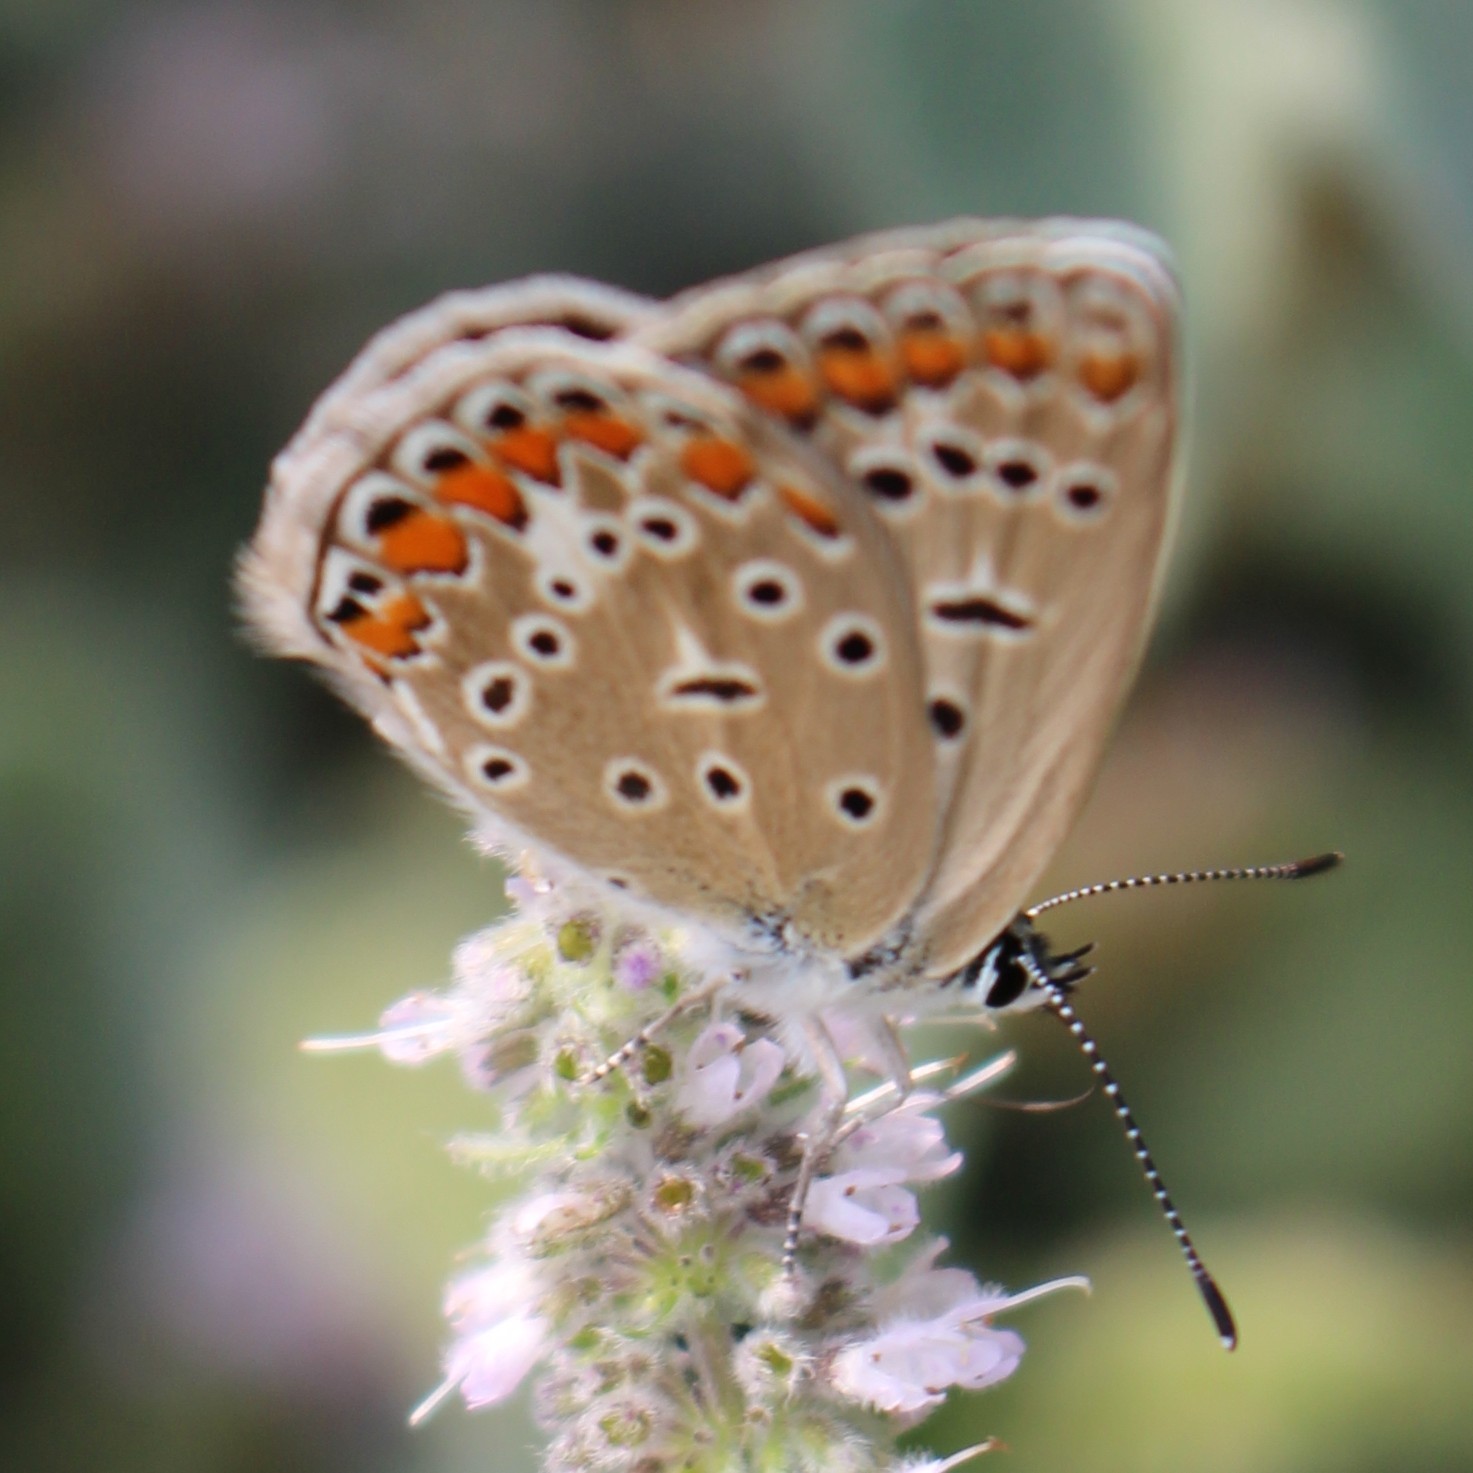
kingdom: Animalia
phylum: Arthropoda
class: Insecta
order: Lepidoptera
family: Lycaenidae
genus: Polyommatus
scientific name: Polyommatus icarus
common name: Common blue
